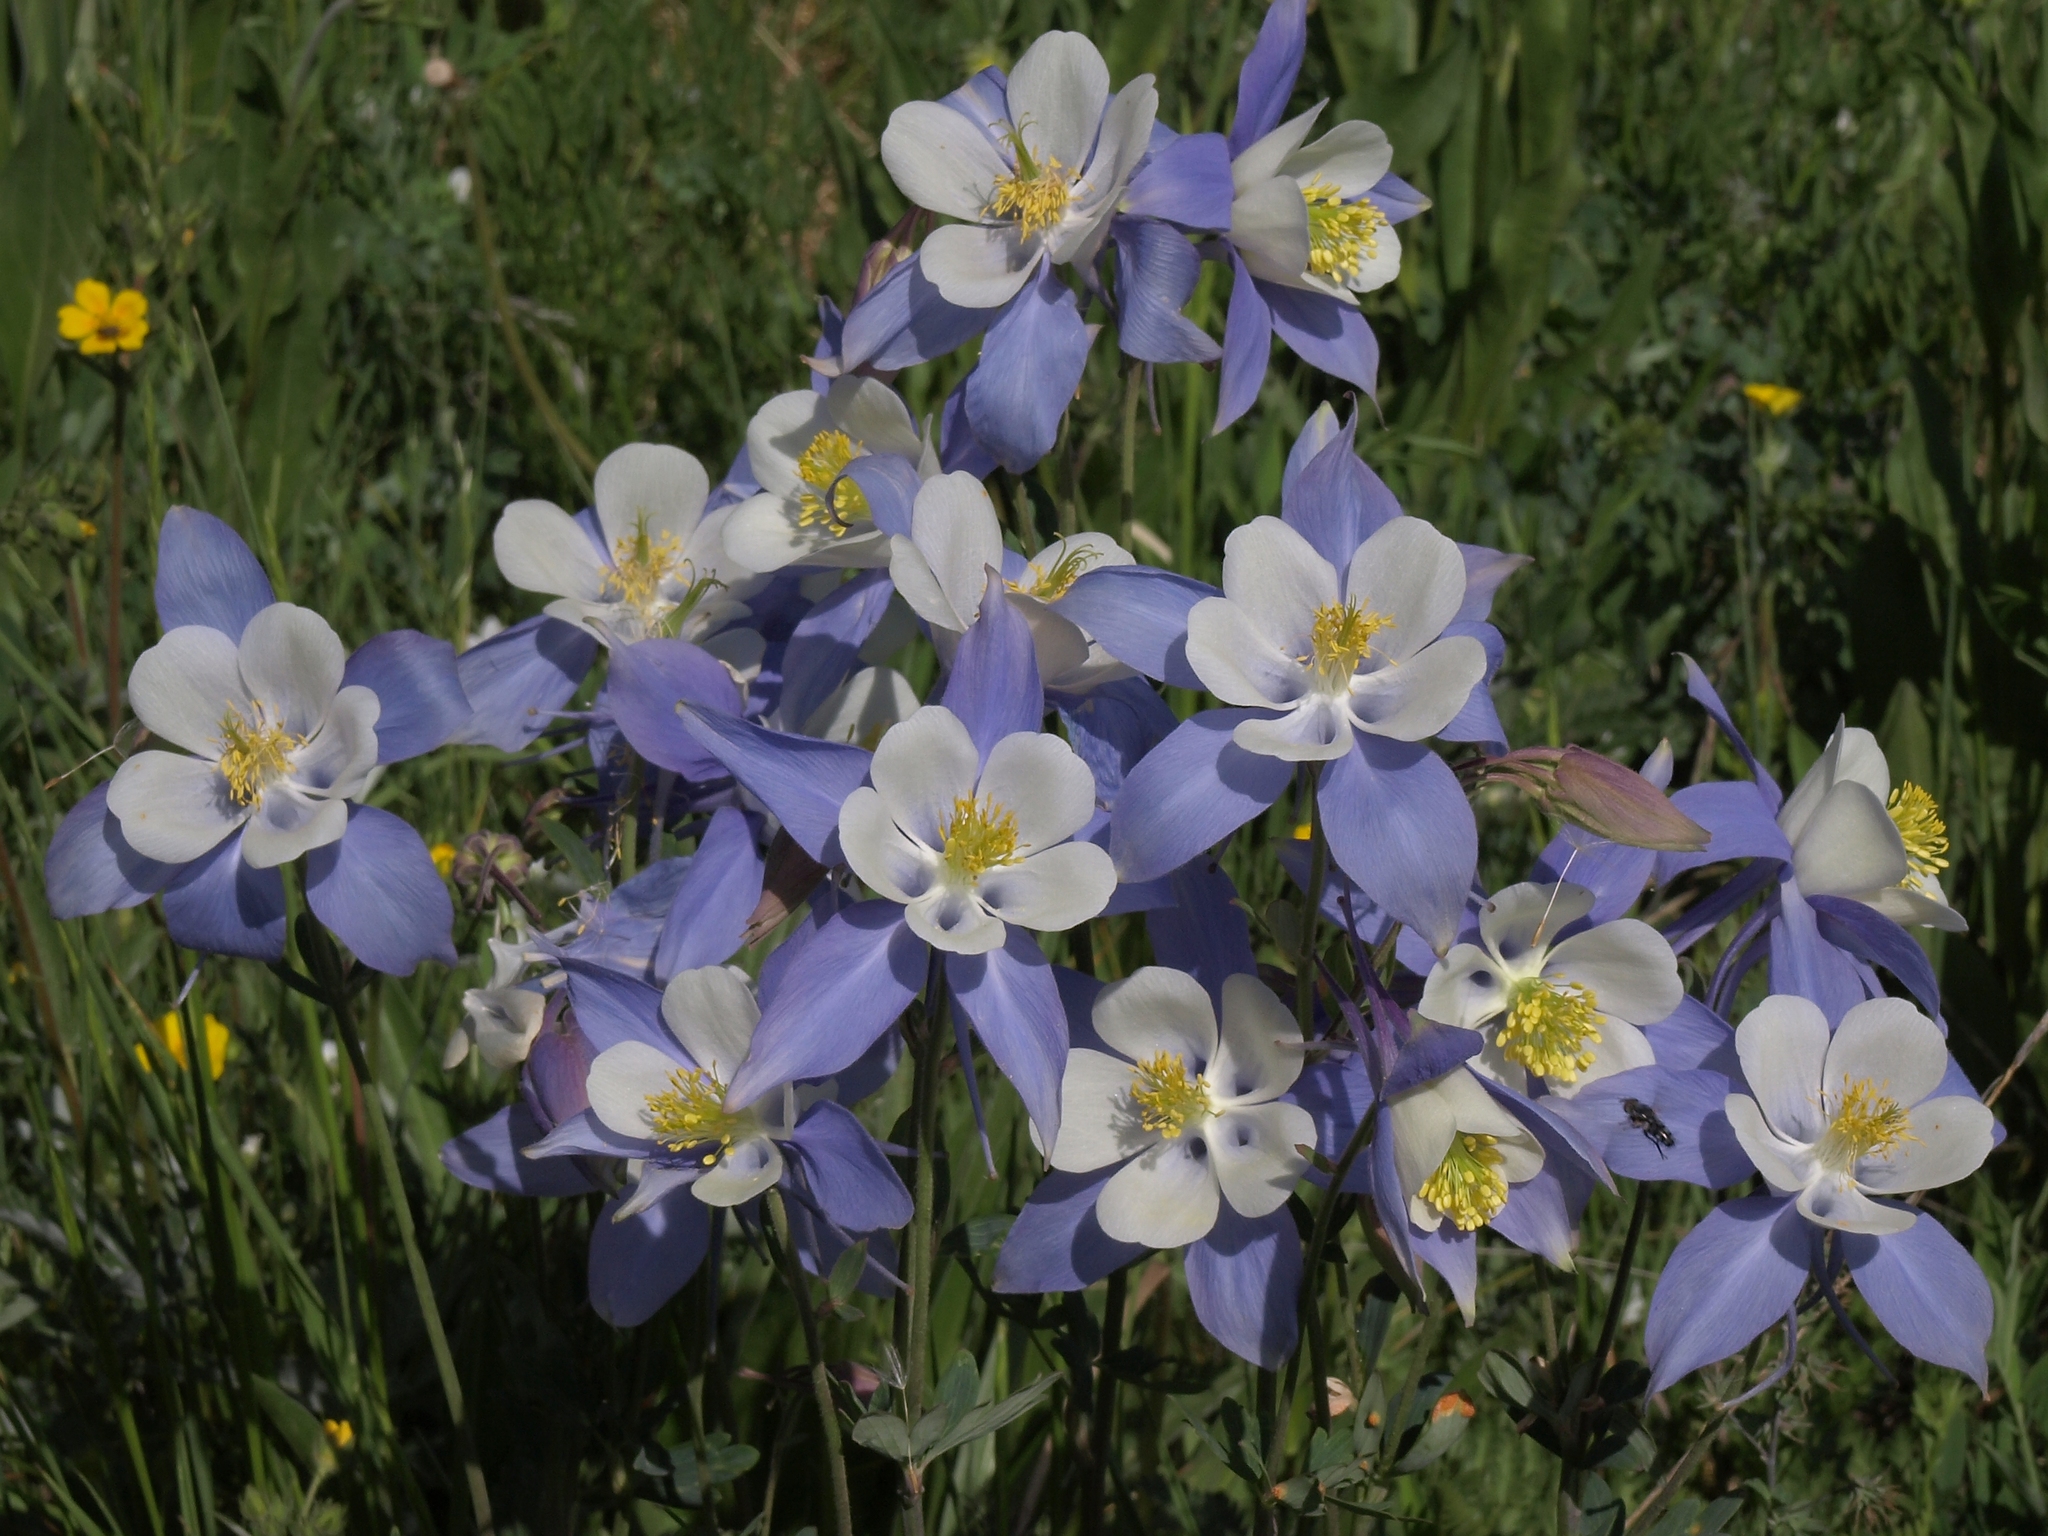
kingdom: Plantae
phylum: Tracheophyta
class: Magnoliopsida
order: Ranunculales
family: Ranunculaceae
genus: Aquilegia
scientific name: Aquilegia coerulea
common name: Rocky mountain columbine
